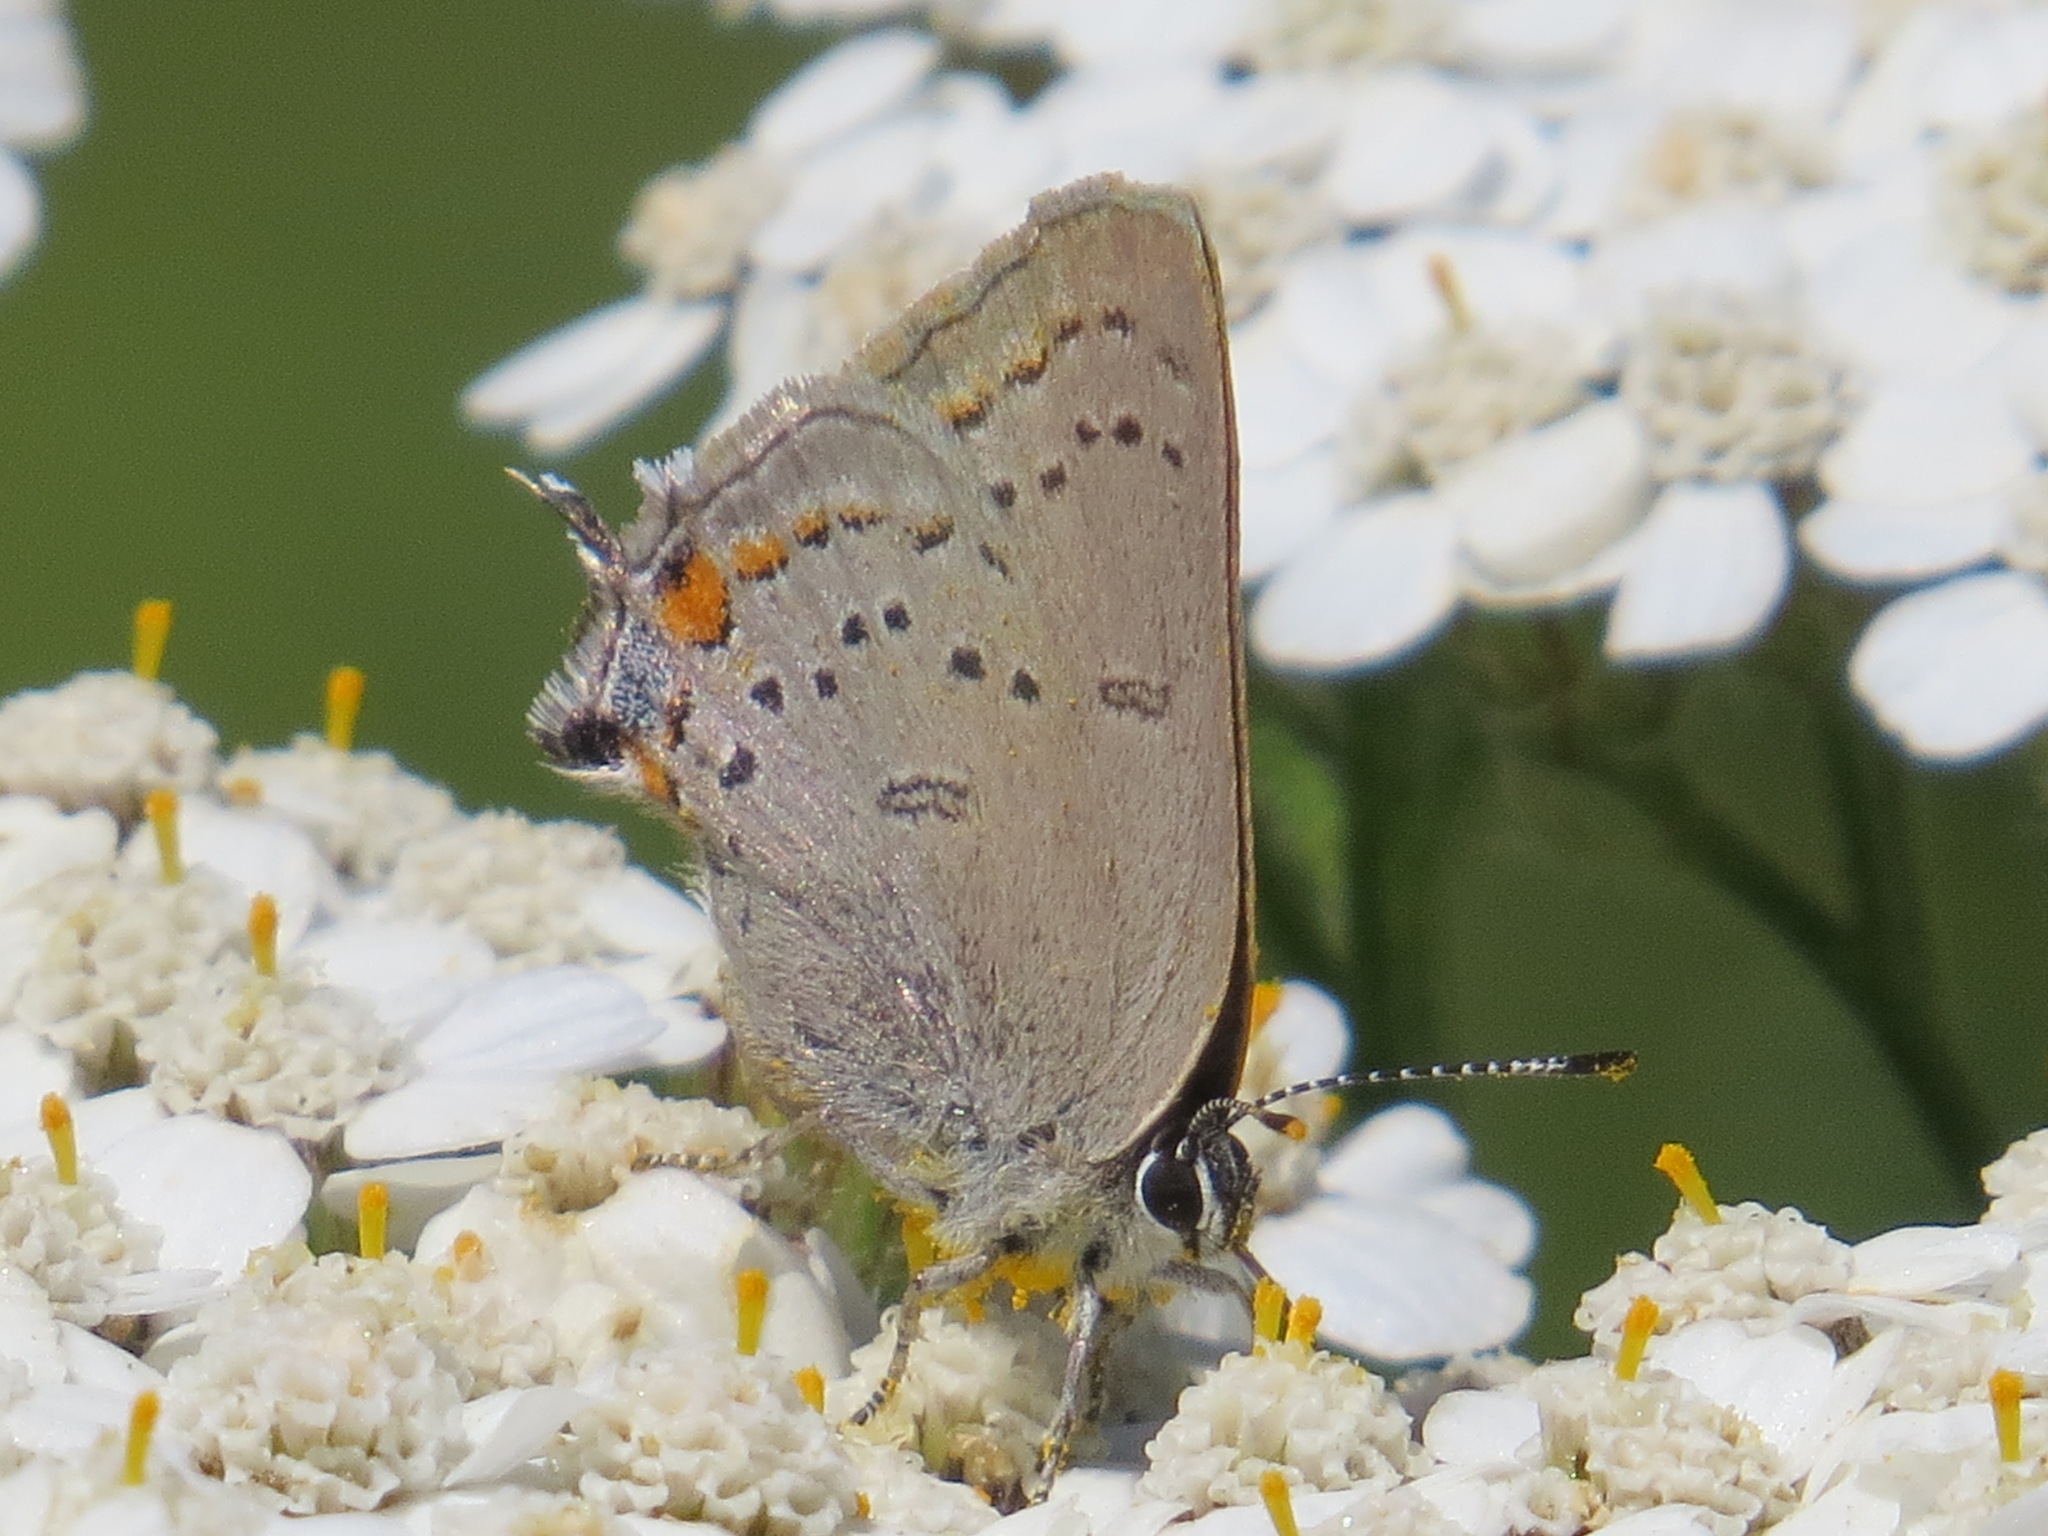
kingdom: Animalia
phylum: Arthropoda
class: Insecta
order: Lepidoptera
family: Lycaenidae
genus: Strymon
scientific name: Strymon acadica
